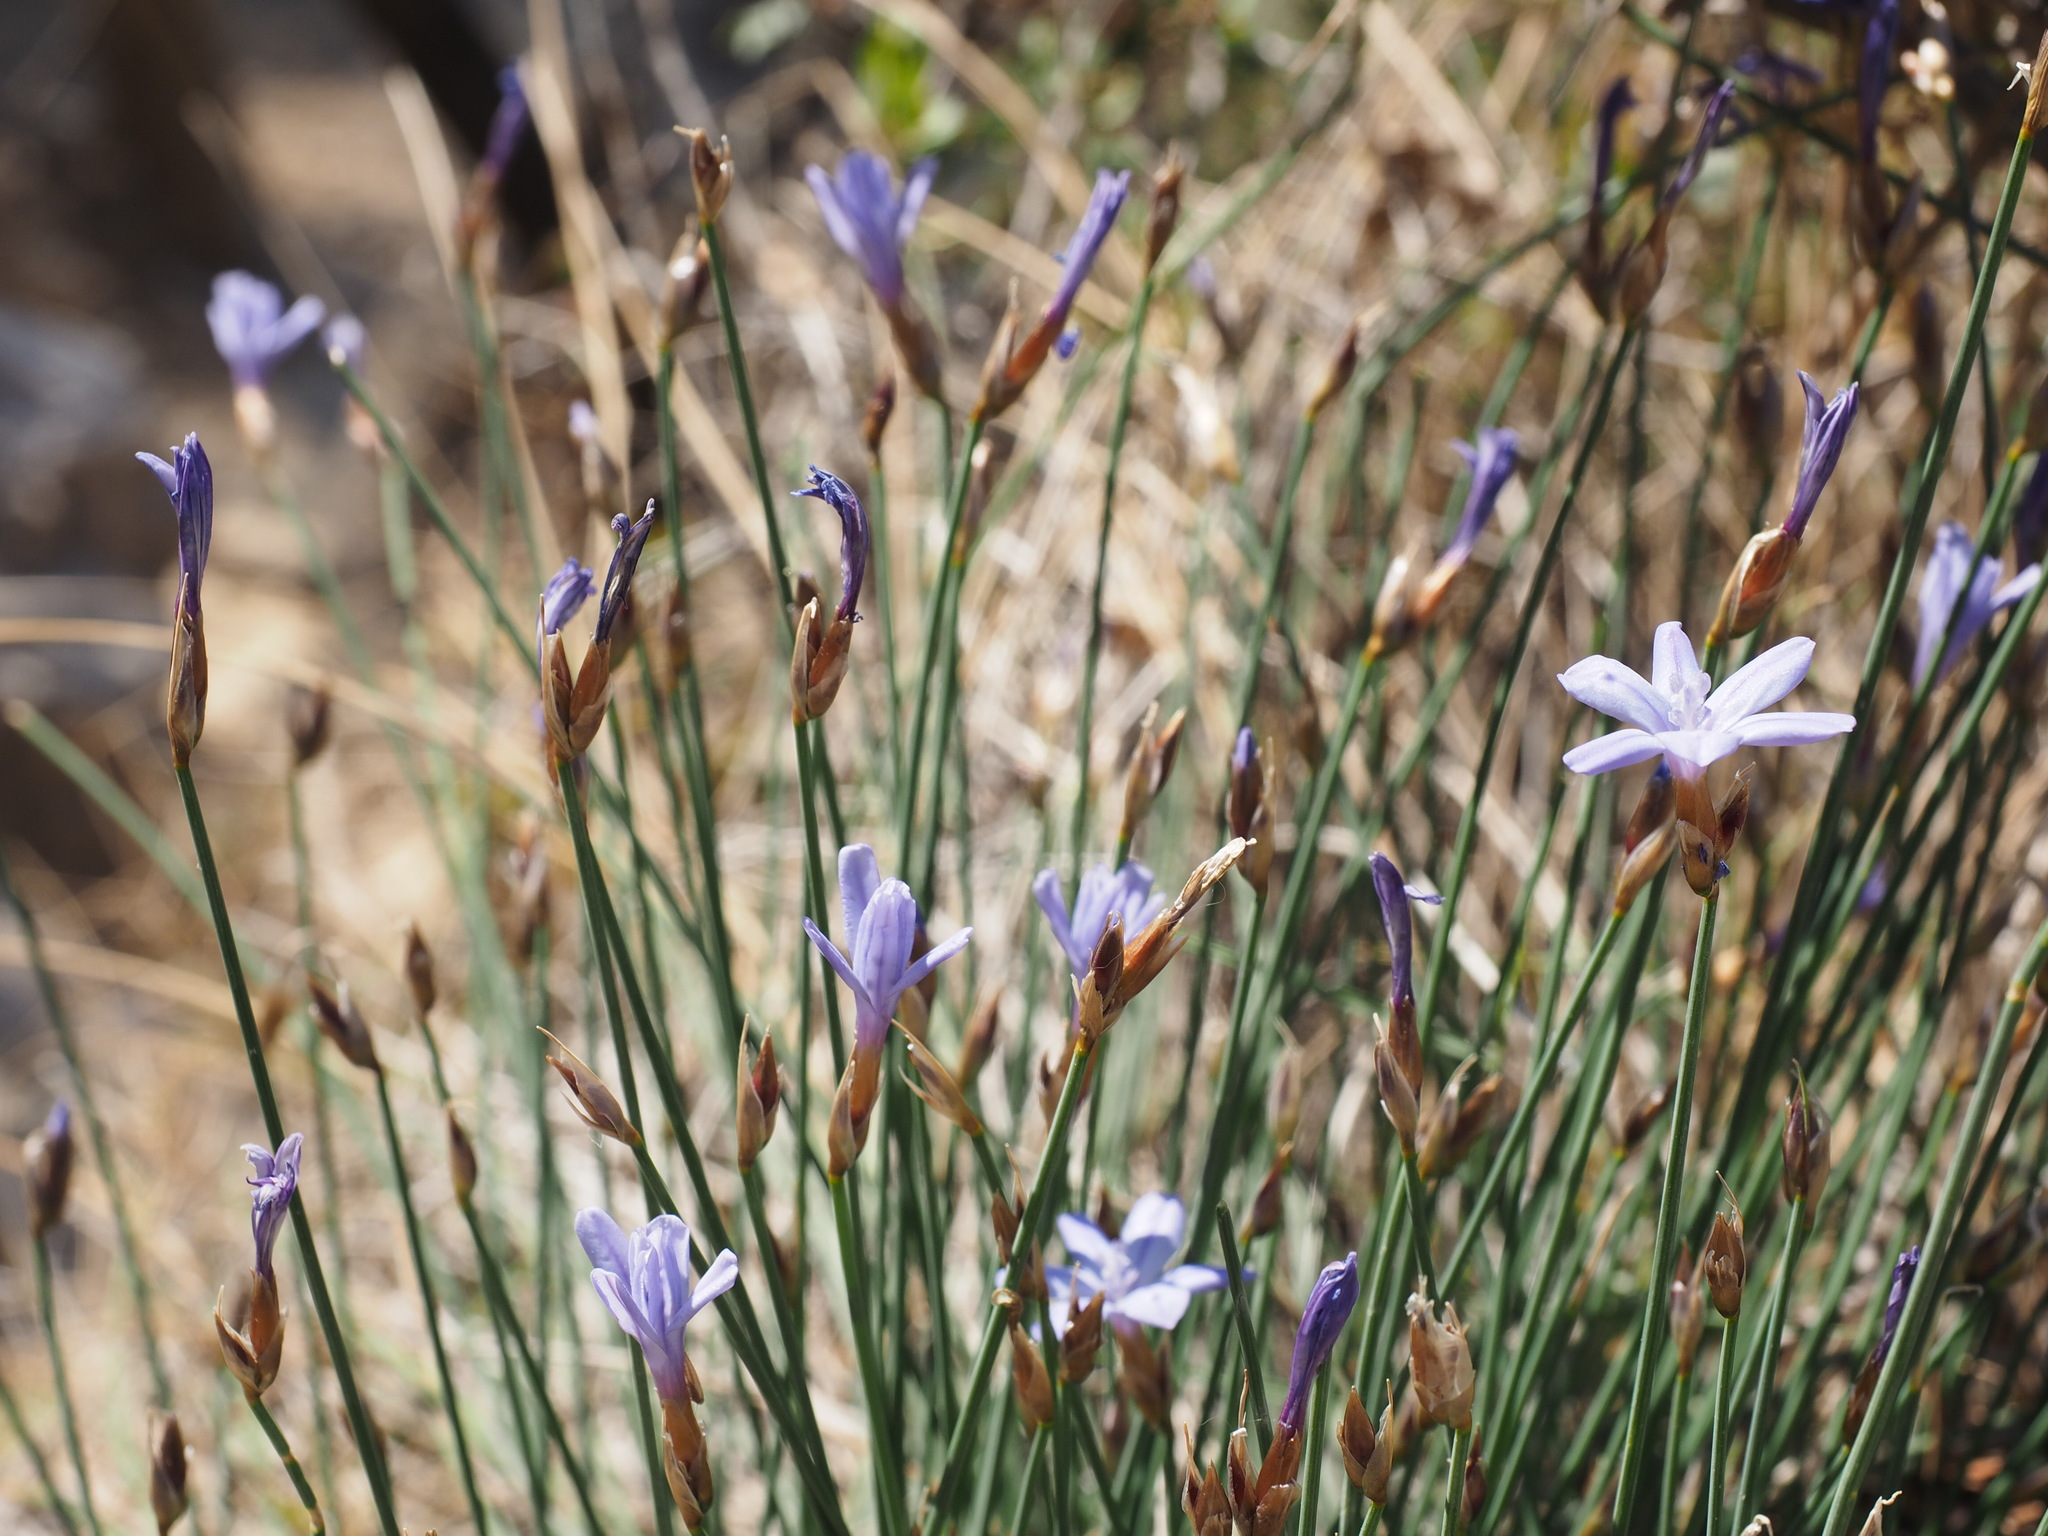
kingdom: Plantae
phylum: Tracheophyta
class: Liliopsida
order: Asparagales
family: Asparagaceae
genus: Aphyllanthes
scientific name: Aphyllanthes monspeliensis
